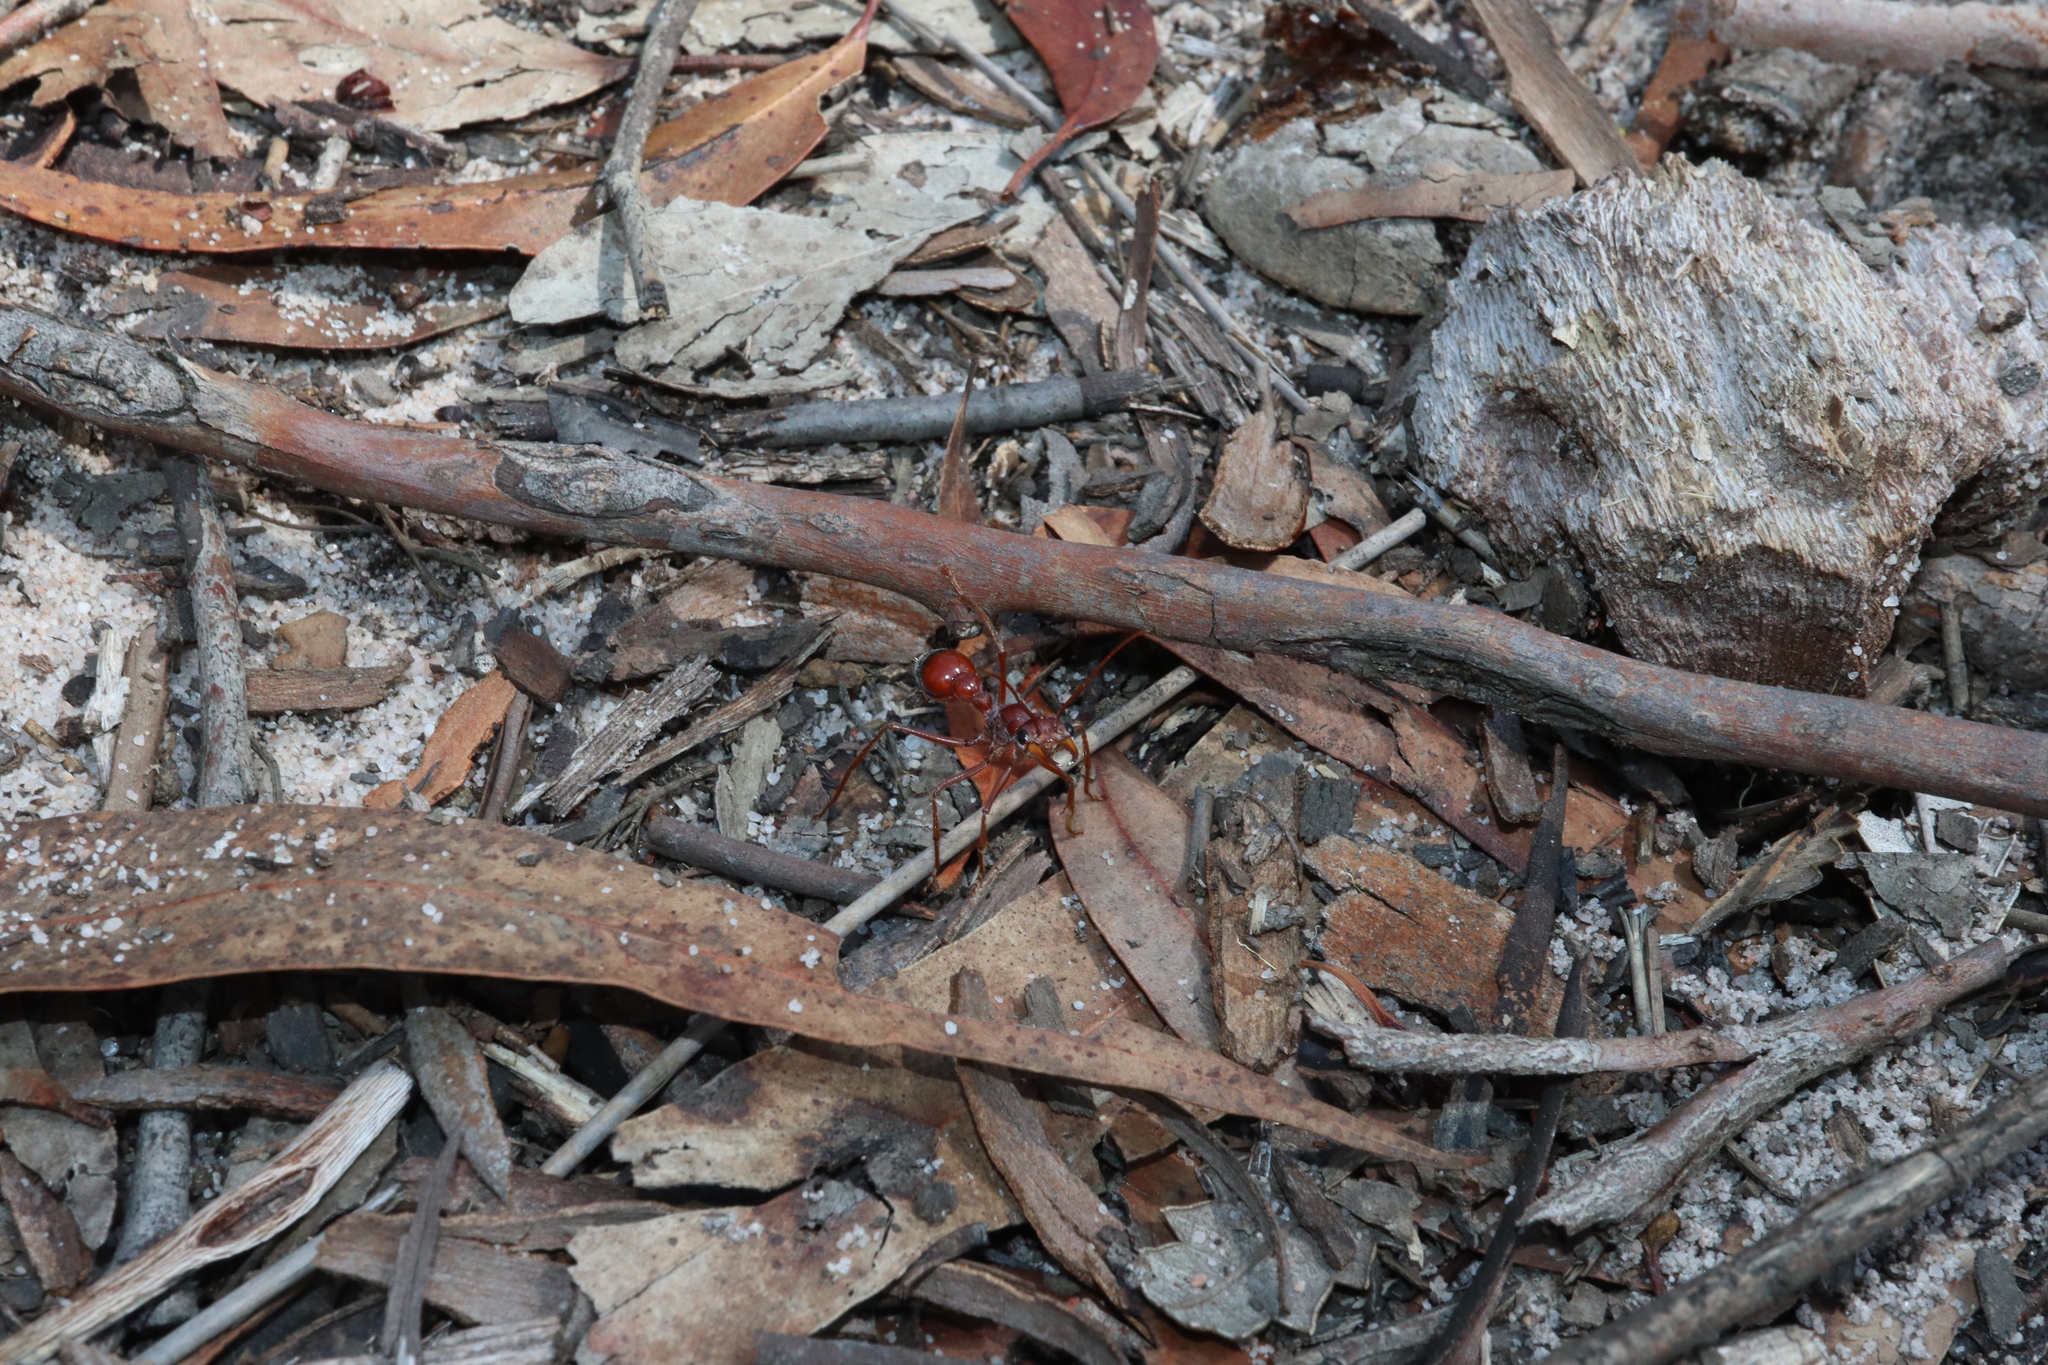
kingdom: Animalia
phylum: Arthropoda
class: Insecta
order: Hymenoptera
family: Formicidae
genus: Myrmecia
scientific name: Myrmecia gulosa
